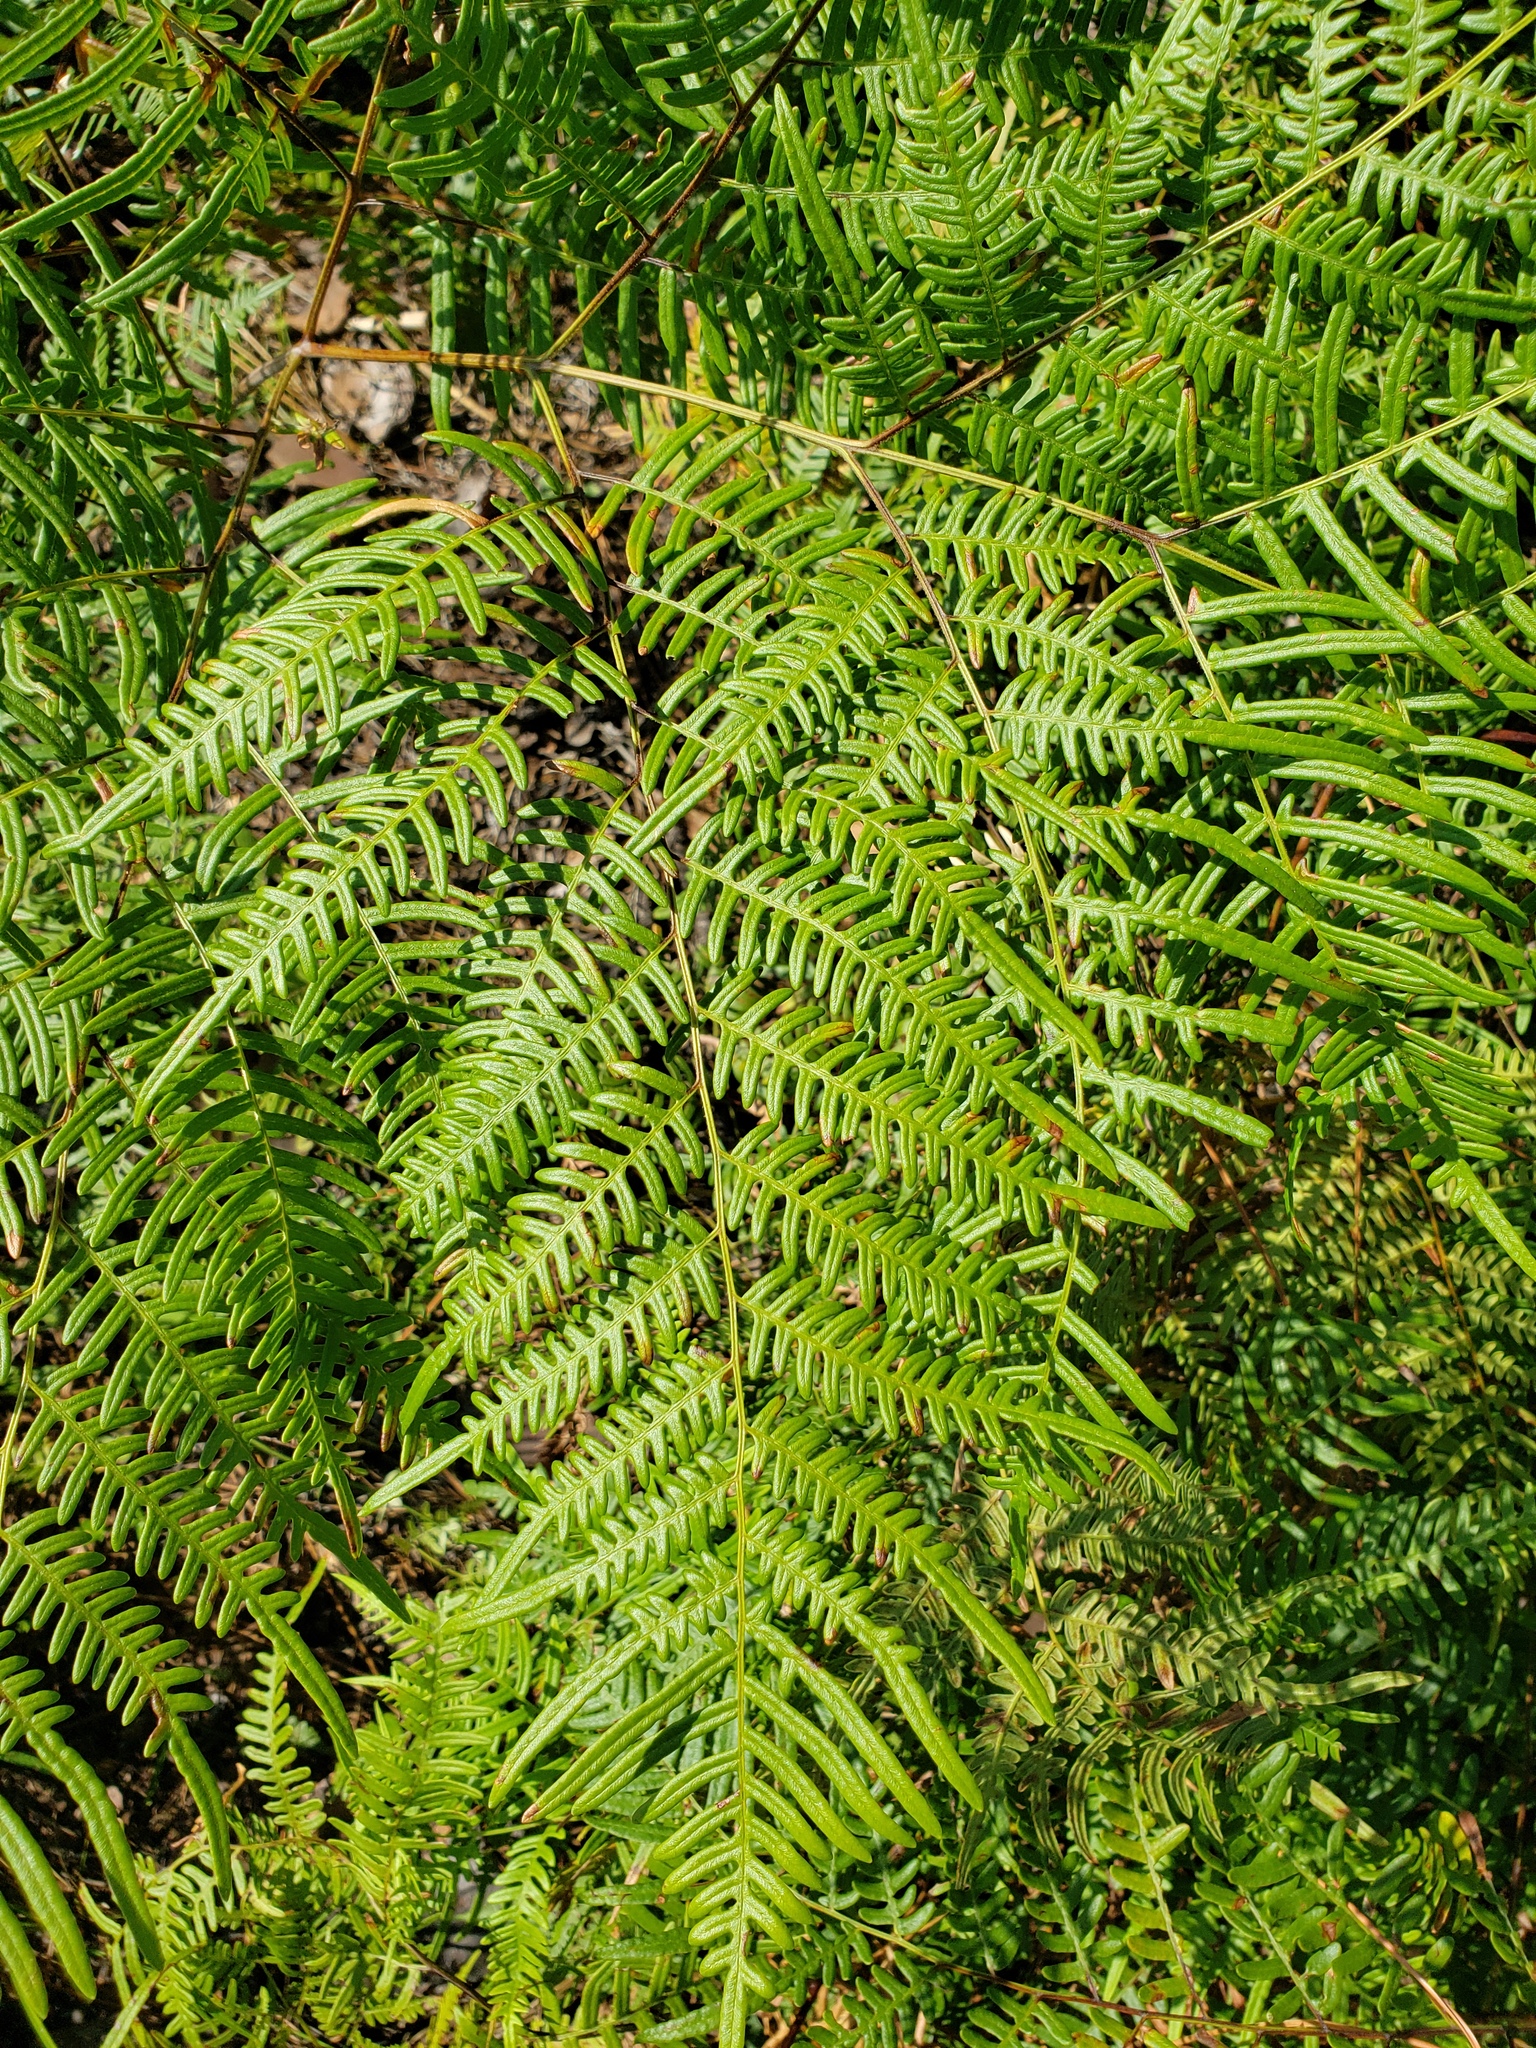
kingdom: Plantae
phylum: Tracheophyta
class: Polypodiopsida
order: Polypodiales
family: Dennstaedtiaceae
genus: Pteridium
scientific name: Pteridium
